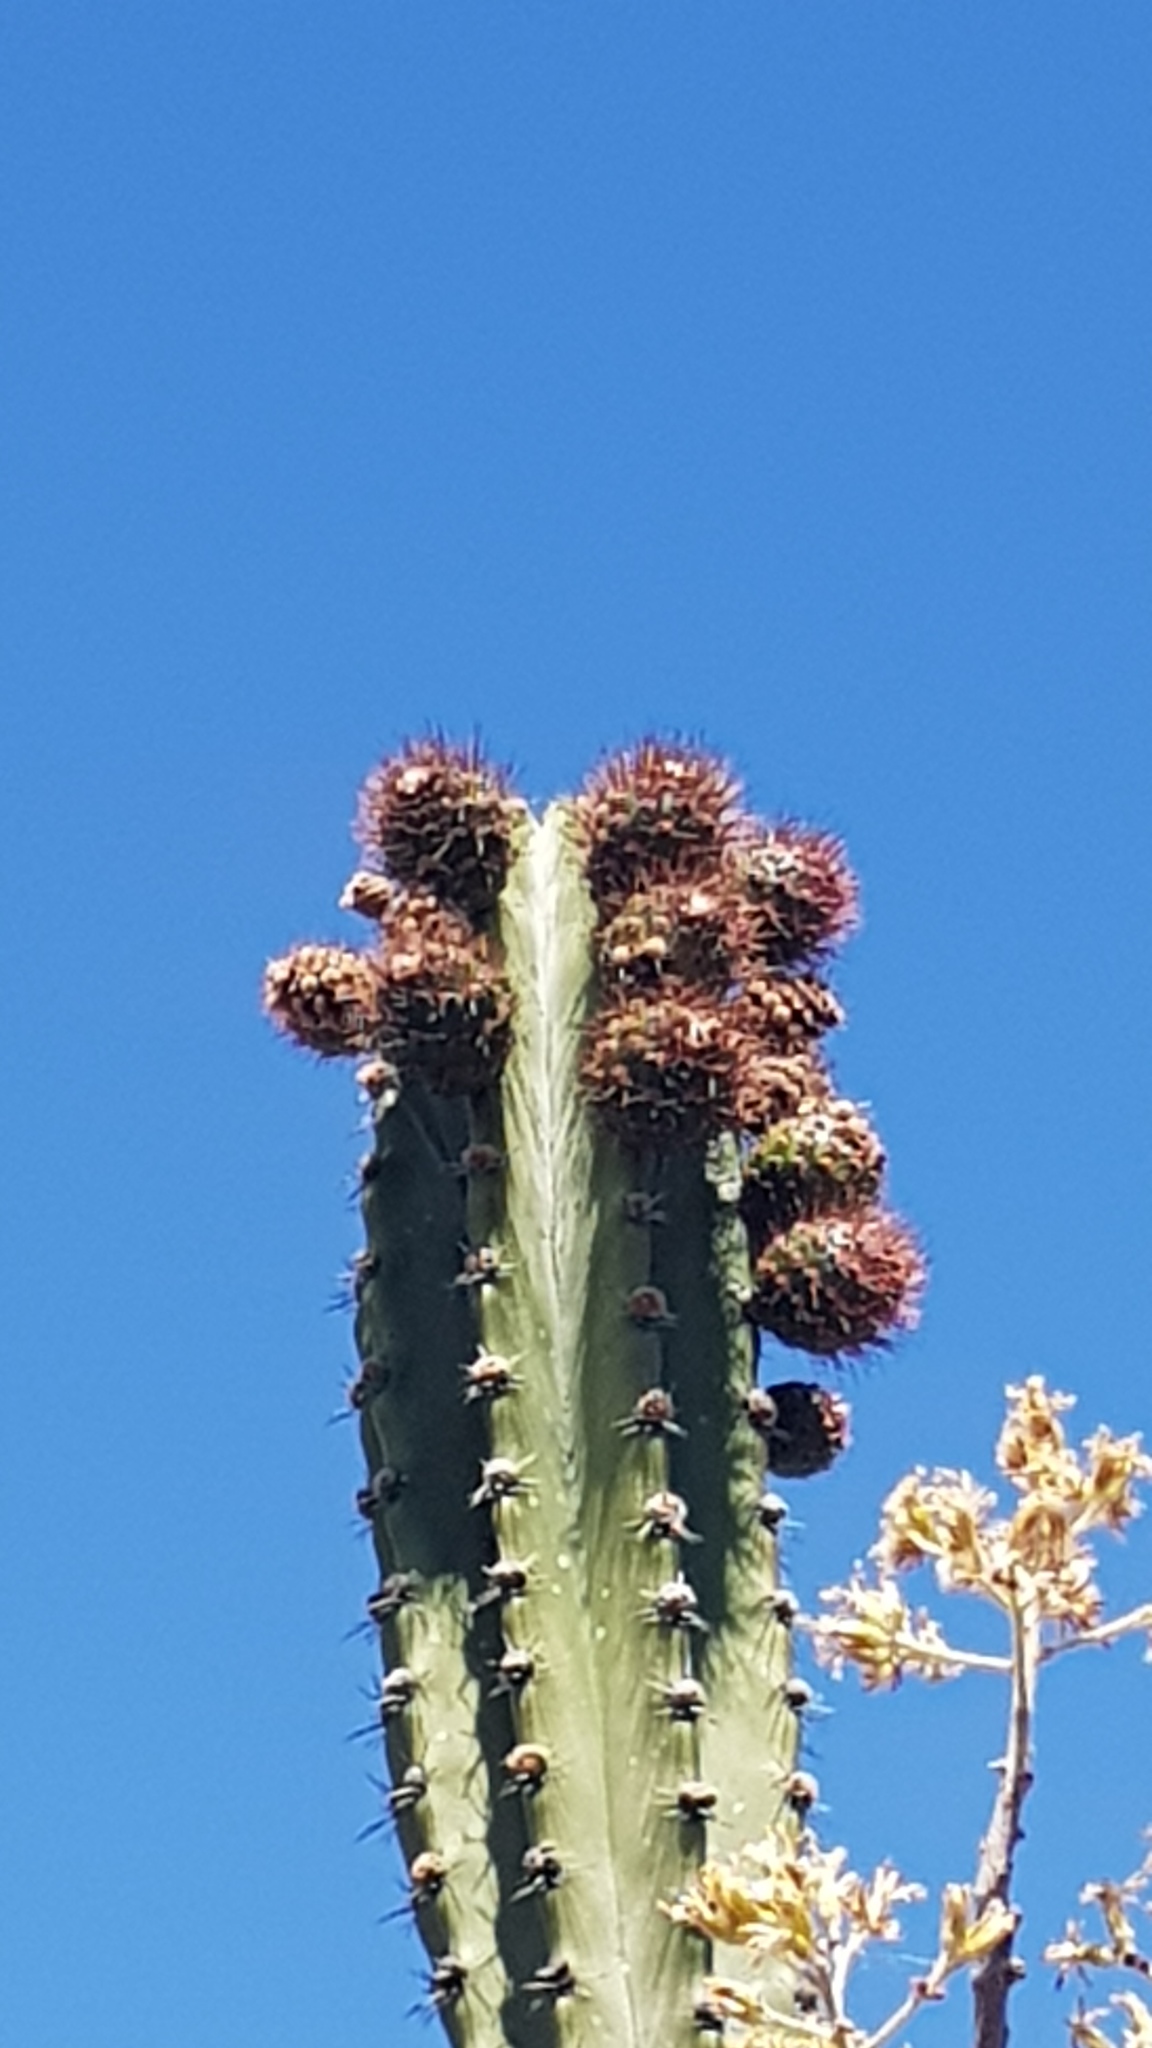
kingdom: Plantae
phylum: Tracheophyta
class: Magnoliopsida
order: Caryophyllales
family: Cactaceae
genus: Stenocereus
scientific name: Stenocereus pruinosus
